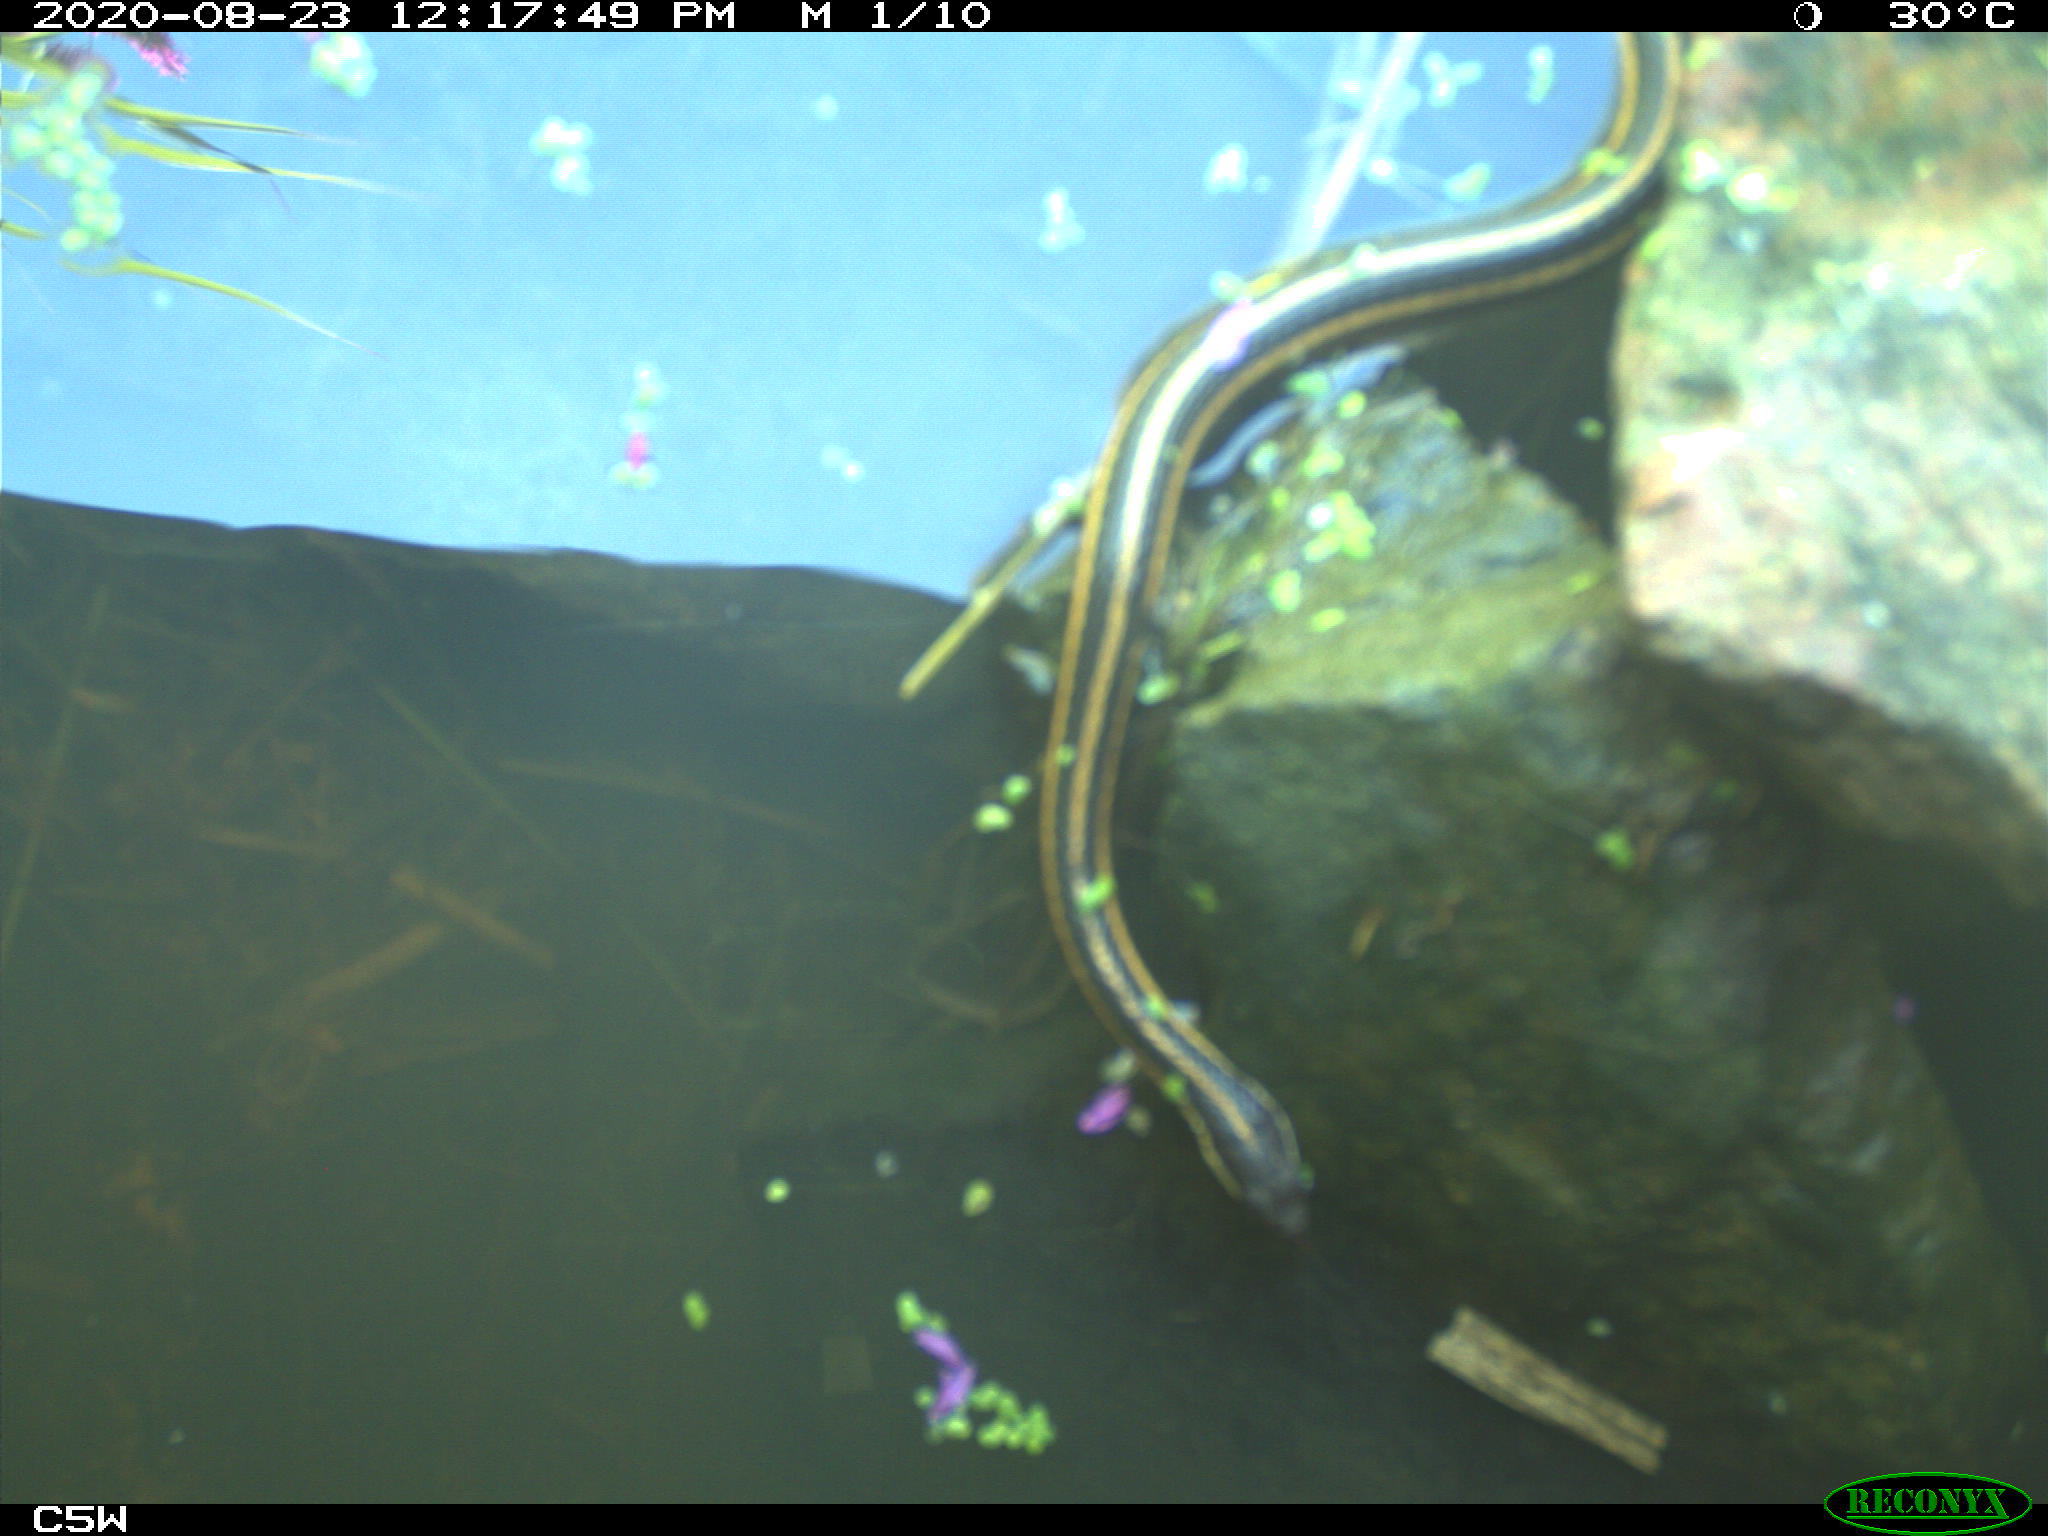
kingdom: Animalia
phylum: Chordata
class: Squamata
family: Colubridae
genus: Thamnophis
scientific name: Thamnophis sirtalis
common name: Common garter snake
